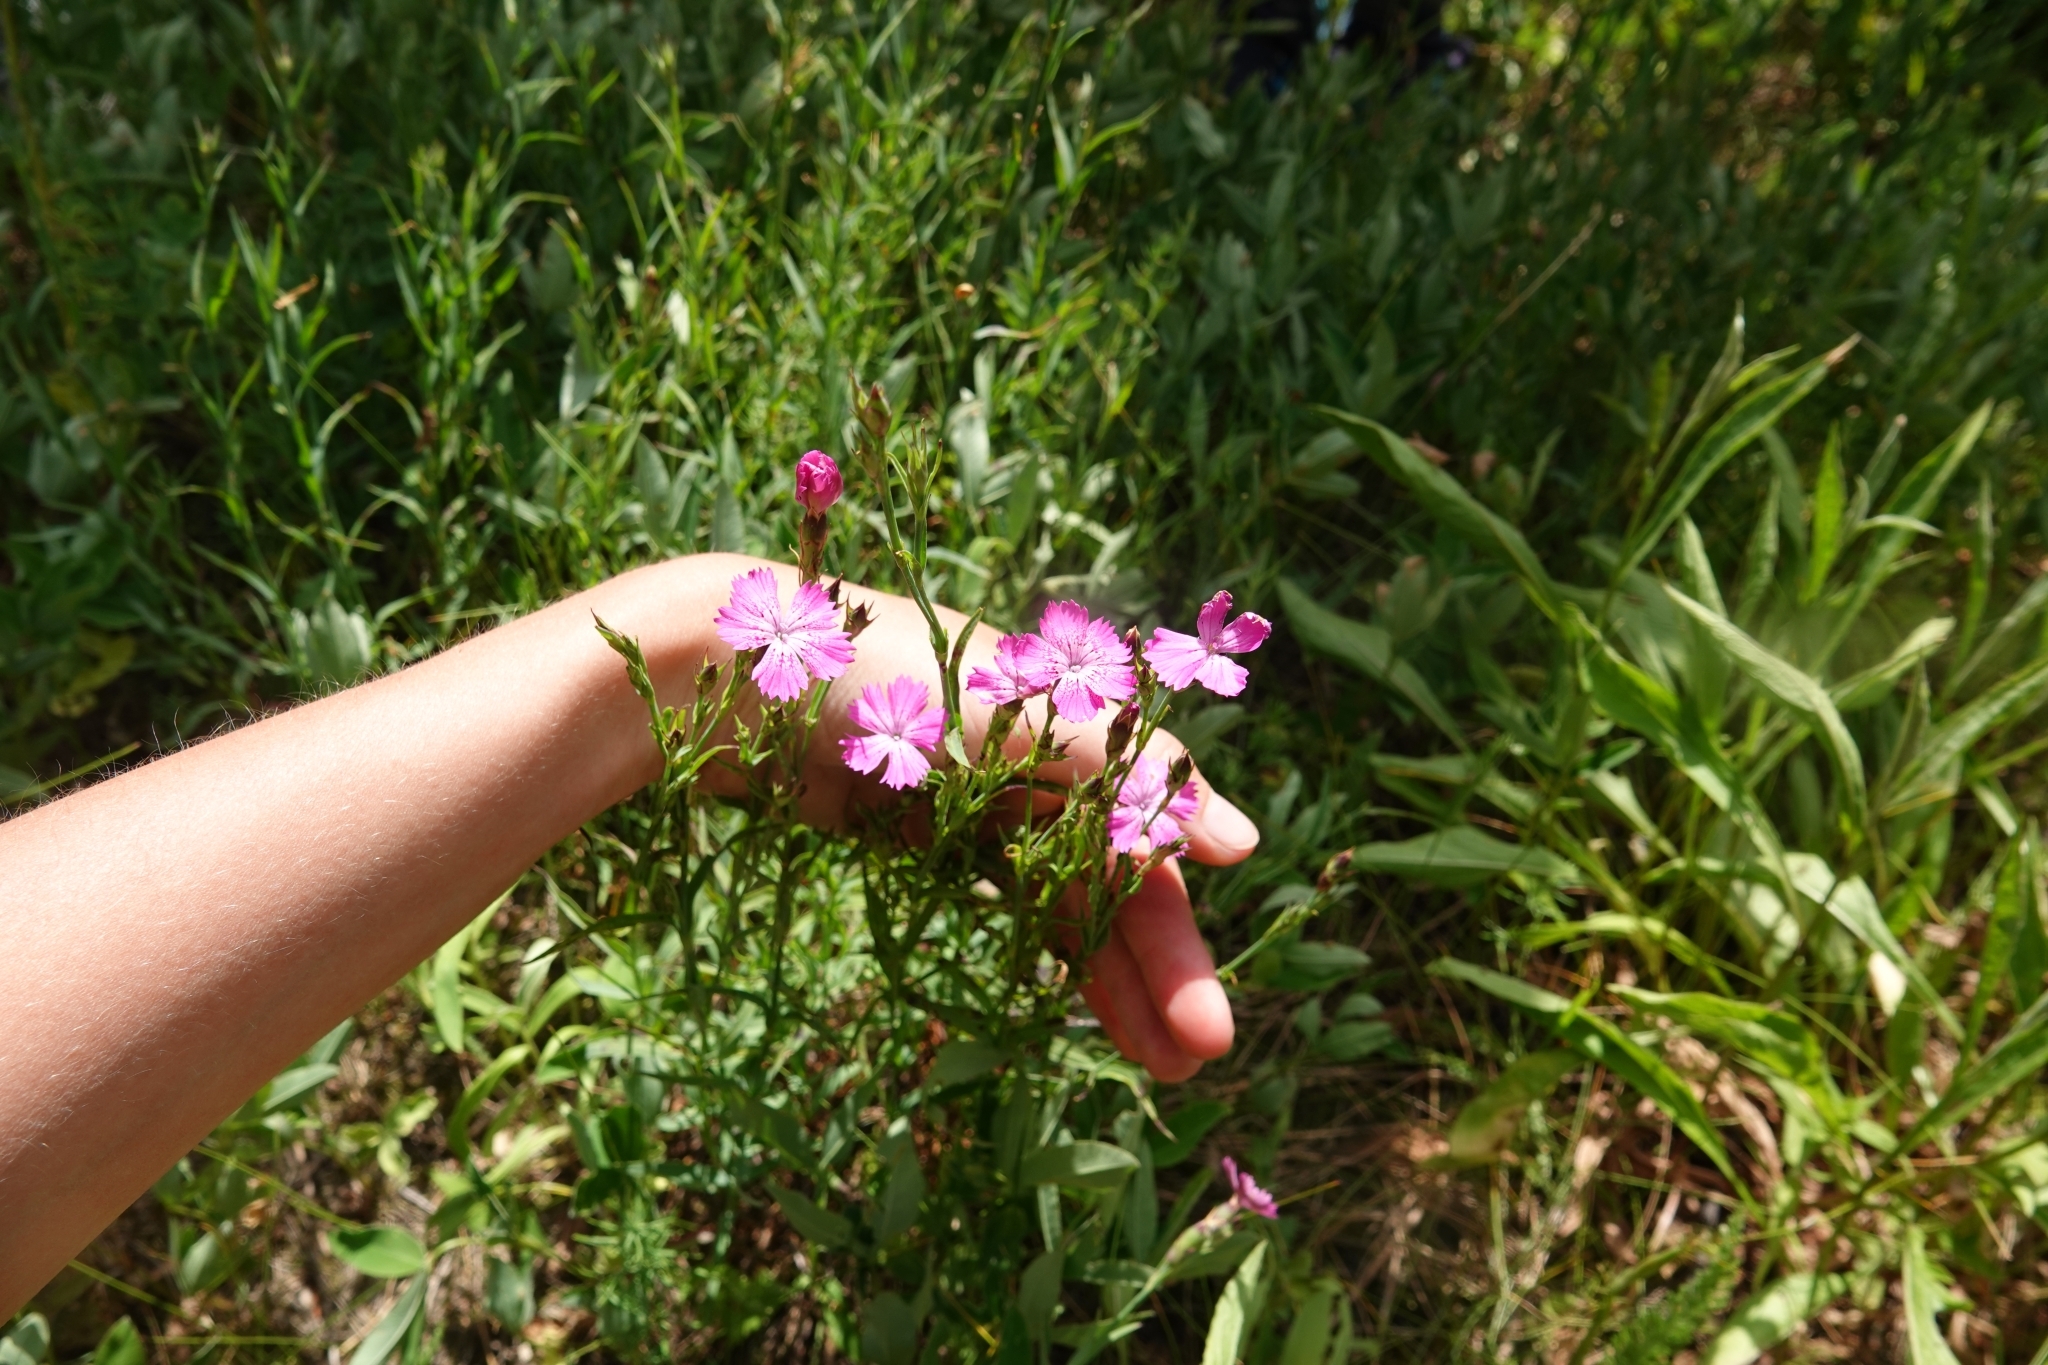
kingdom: Plantae
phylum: Tracheophyta
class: Magnoliopsida
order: Caryophyllales
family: Caryophyllaceae
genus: Dianthus
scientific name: Dianthus chinensis
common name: Rainbow pink
